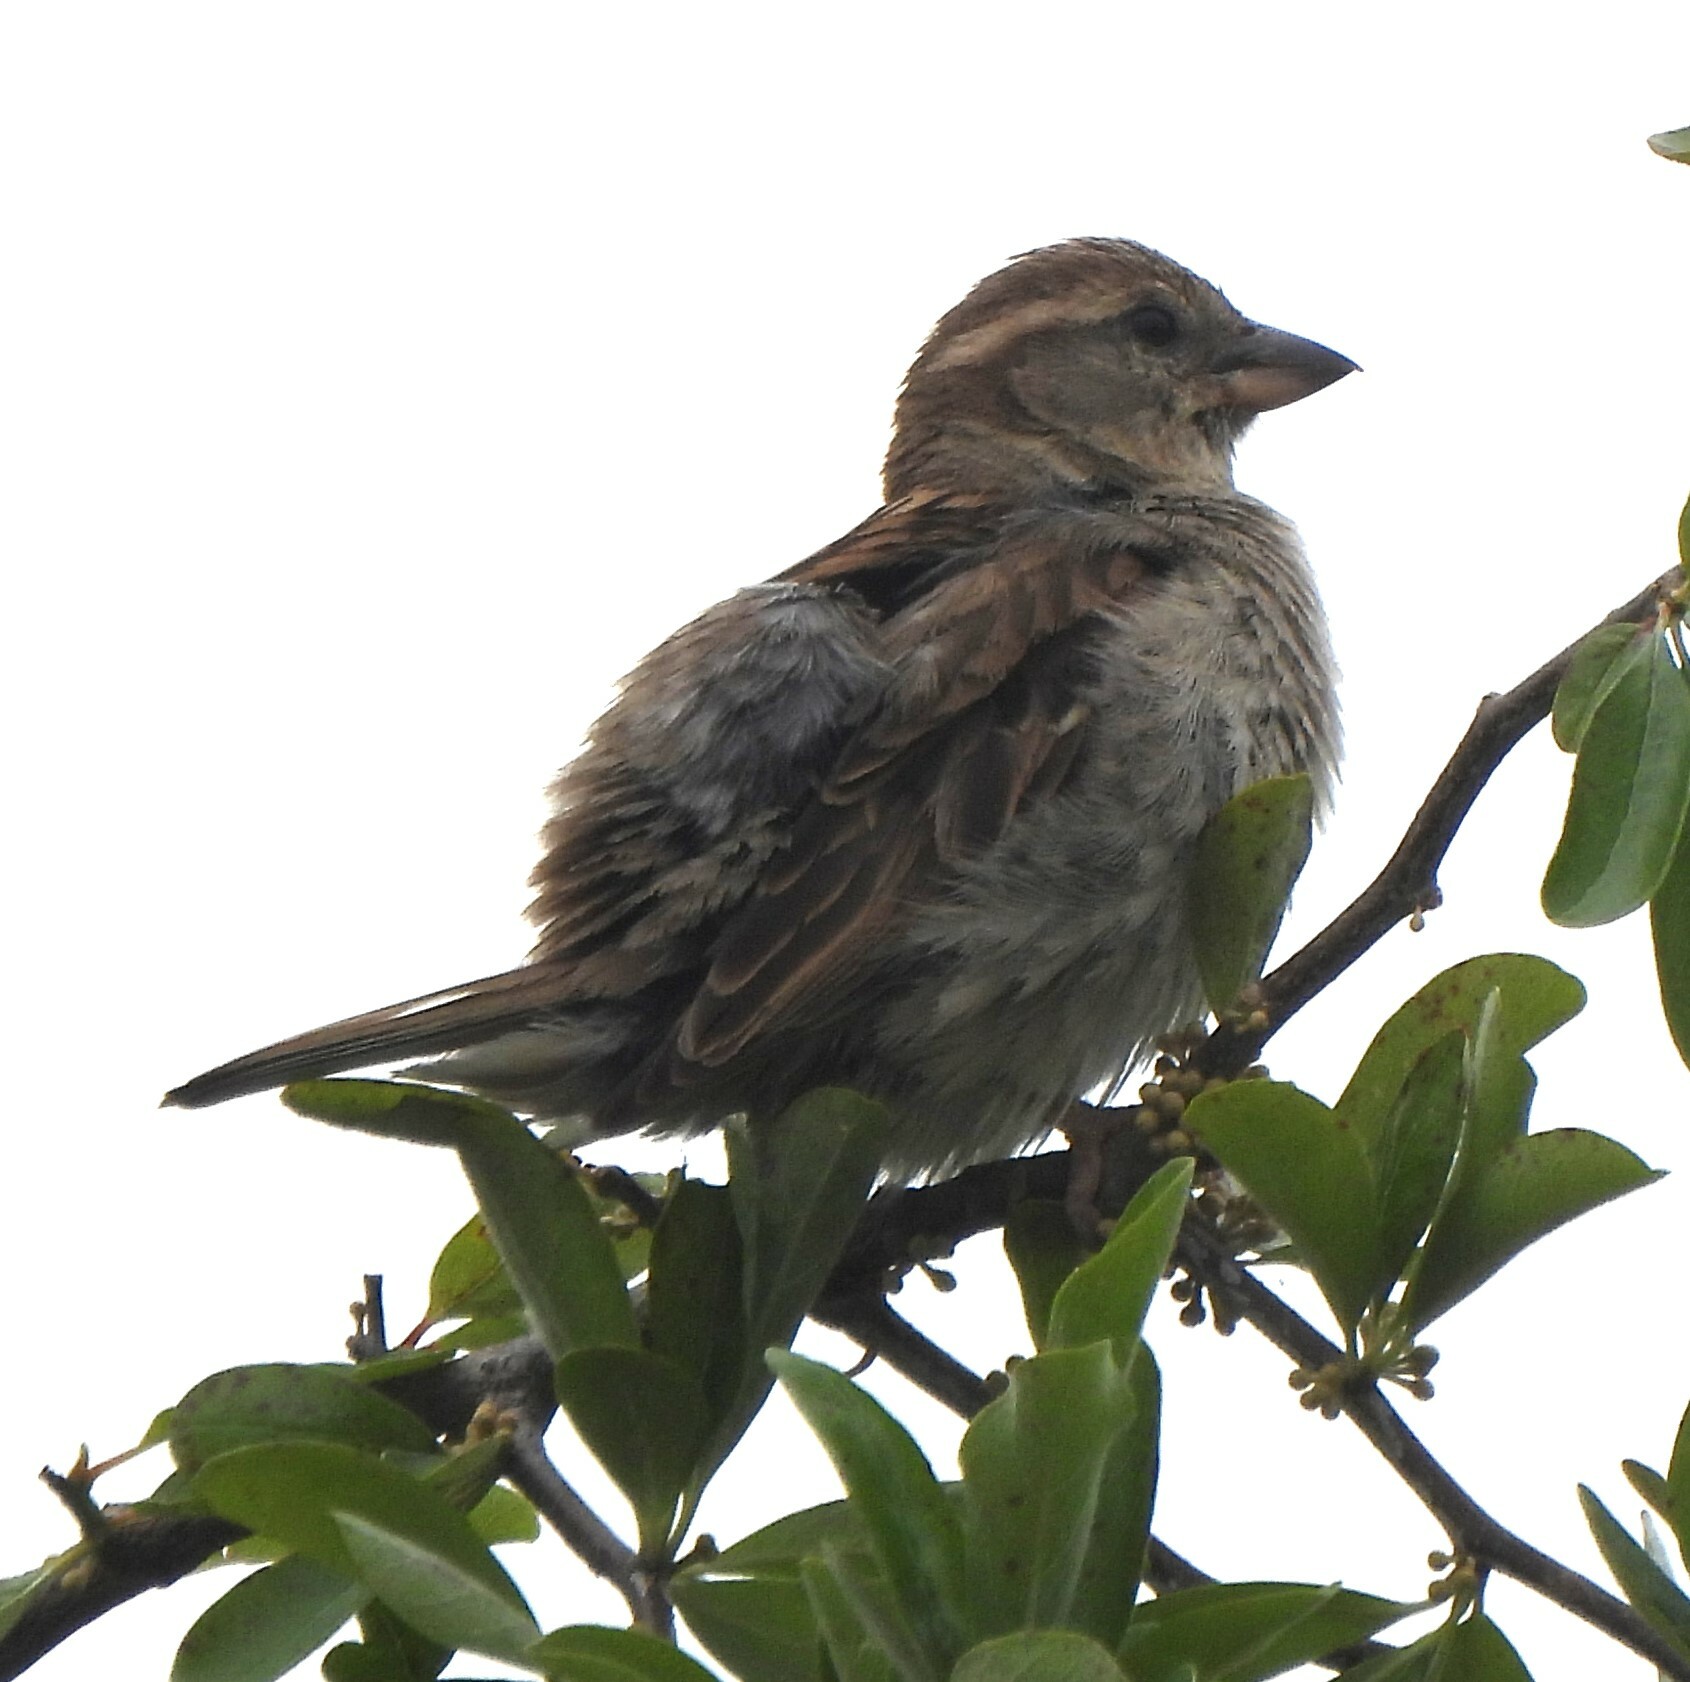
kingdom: Animalia
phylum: Chordata
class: Aves
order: Passeriformes
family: Passeridae
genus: Passer
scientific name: Passer domesticus
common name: House sparrow
